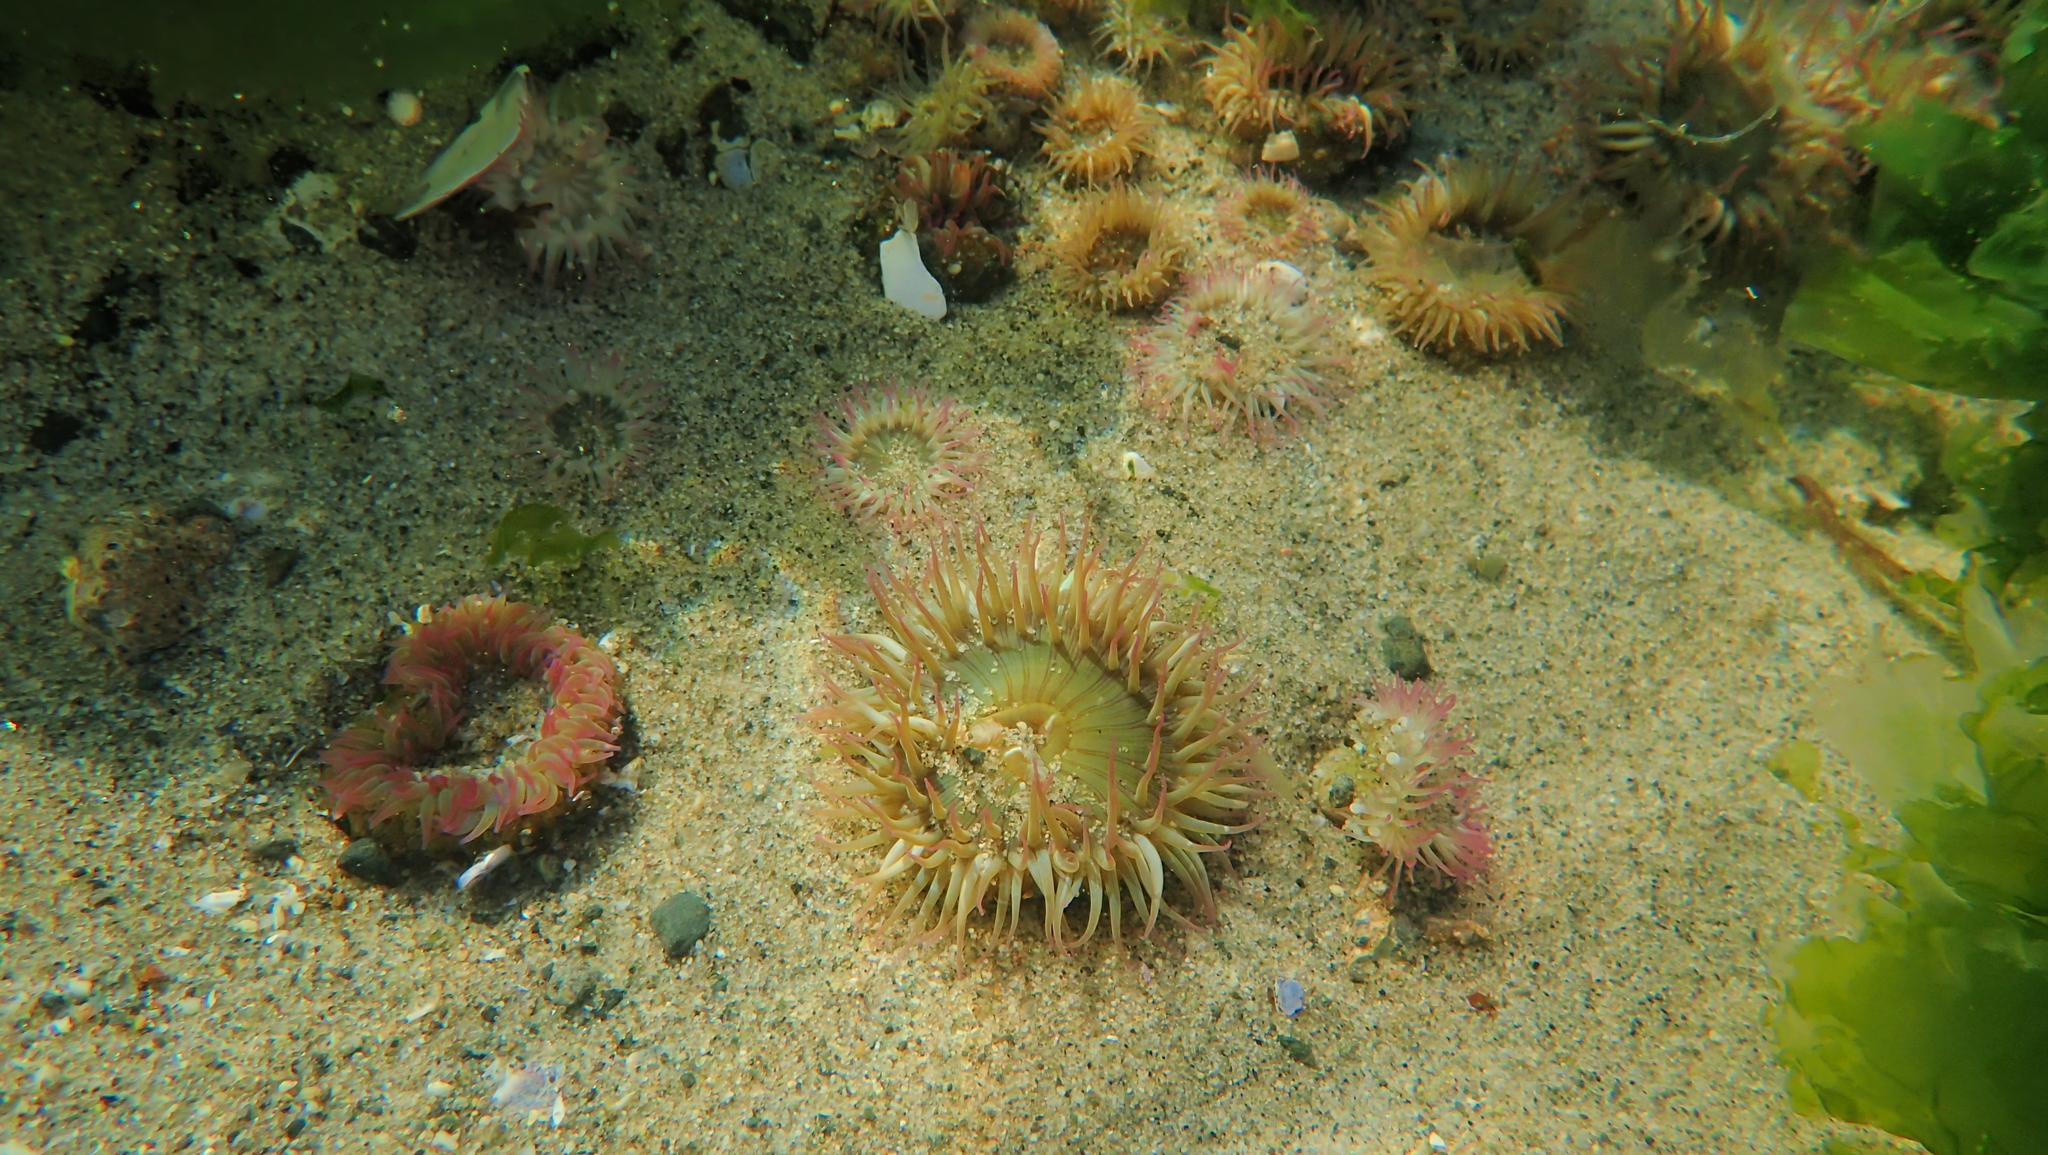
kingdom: Animalia
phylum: Cnidaria
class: Anthozoa
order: Actiniaria
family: Actiniidae
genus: Anthopleura
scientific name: Anthopleura elegantissima
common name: Clonal anemone
